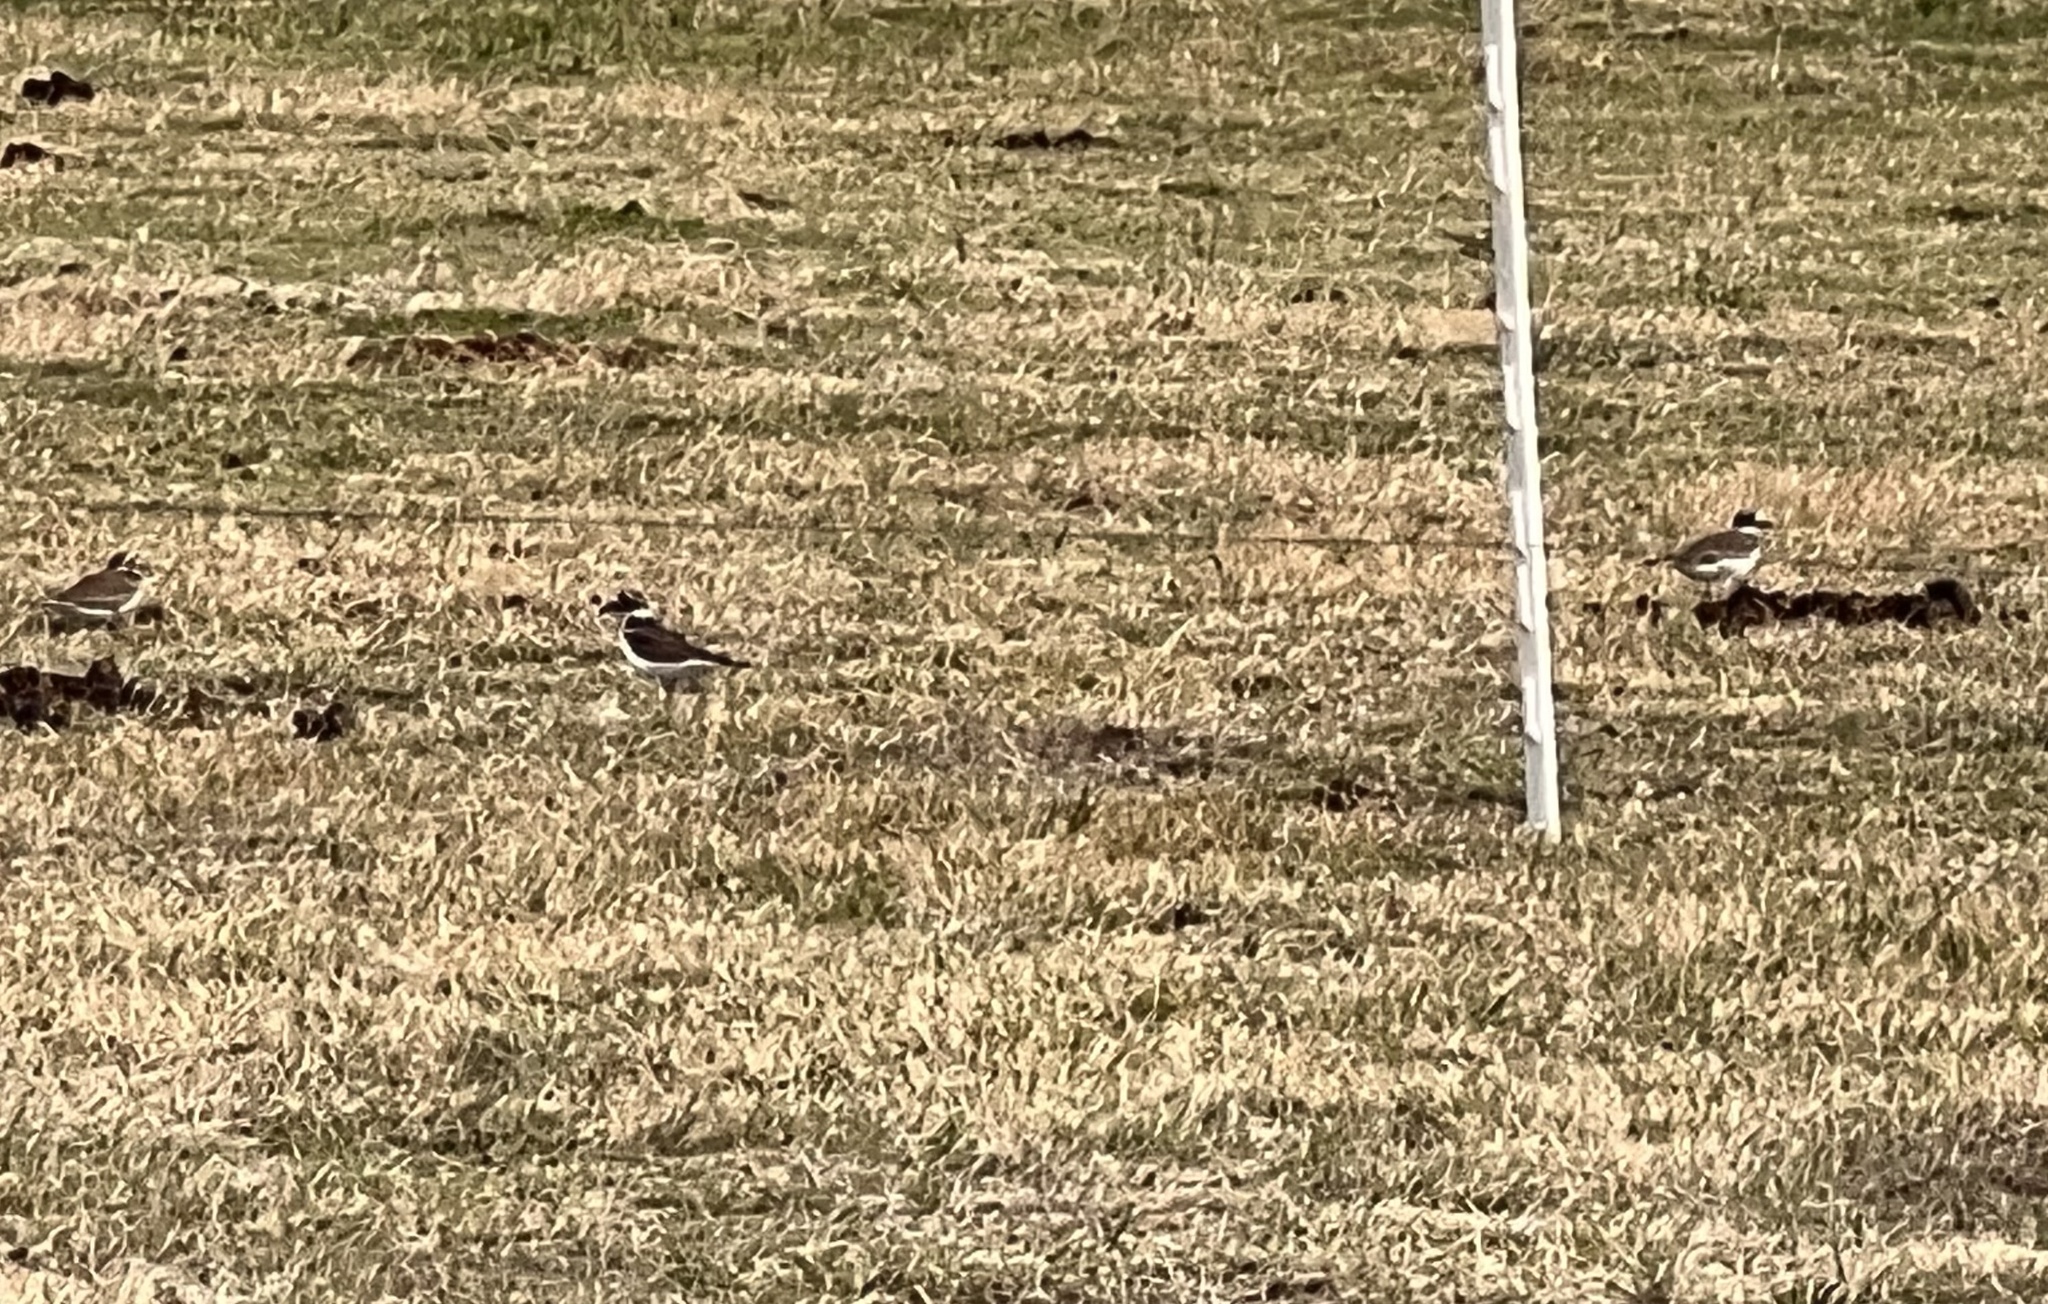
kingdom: Animalia
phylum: Chordata
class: Aves
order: Charadriiformes
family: Charadriidae
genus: Charadrius
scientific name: Charadrius vociferus
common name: Killdeer
